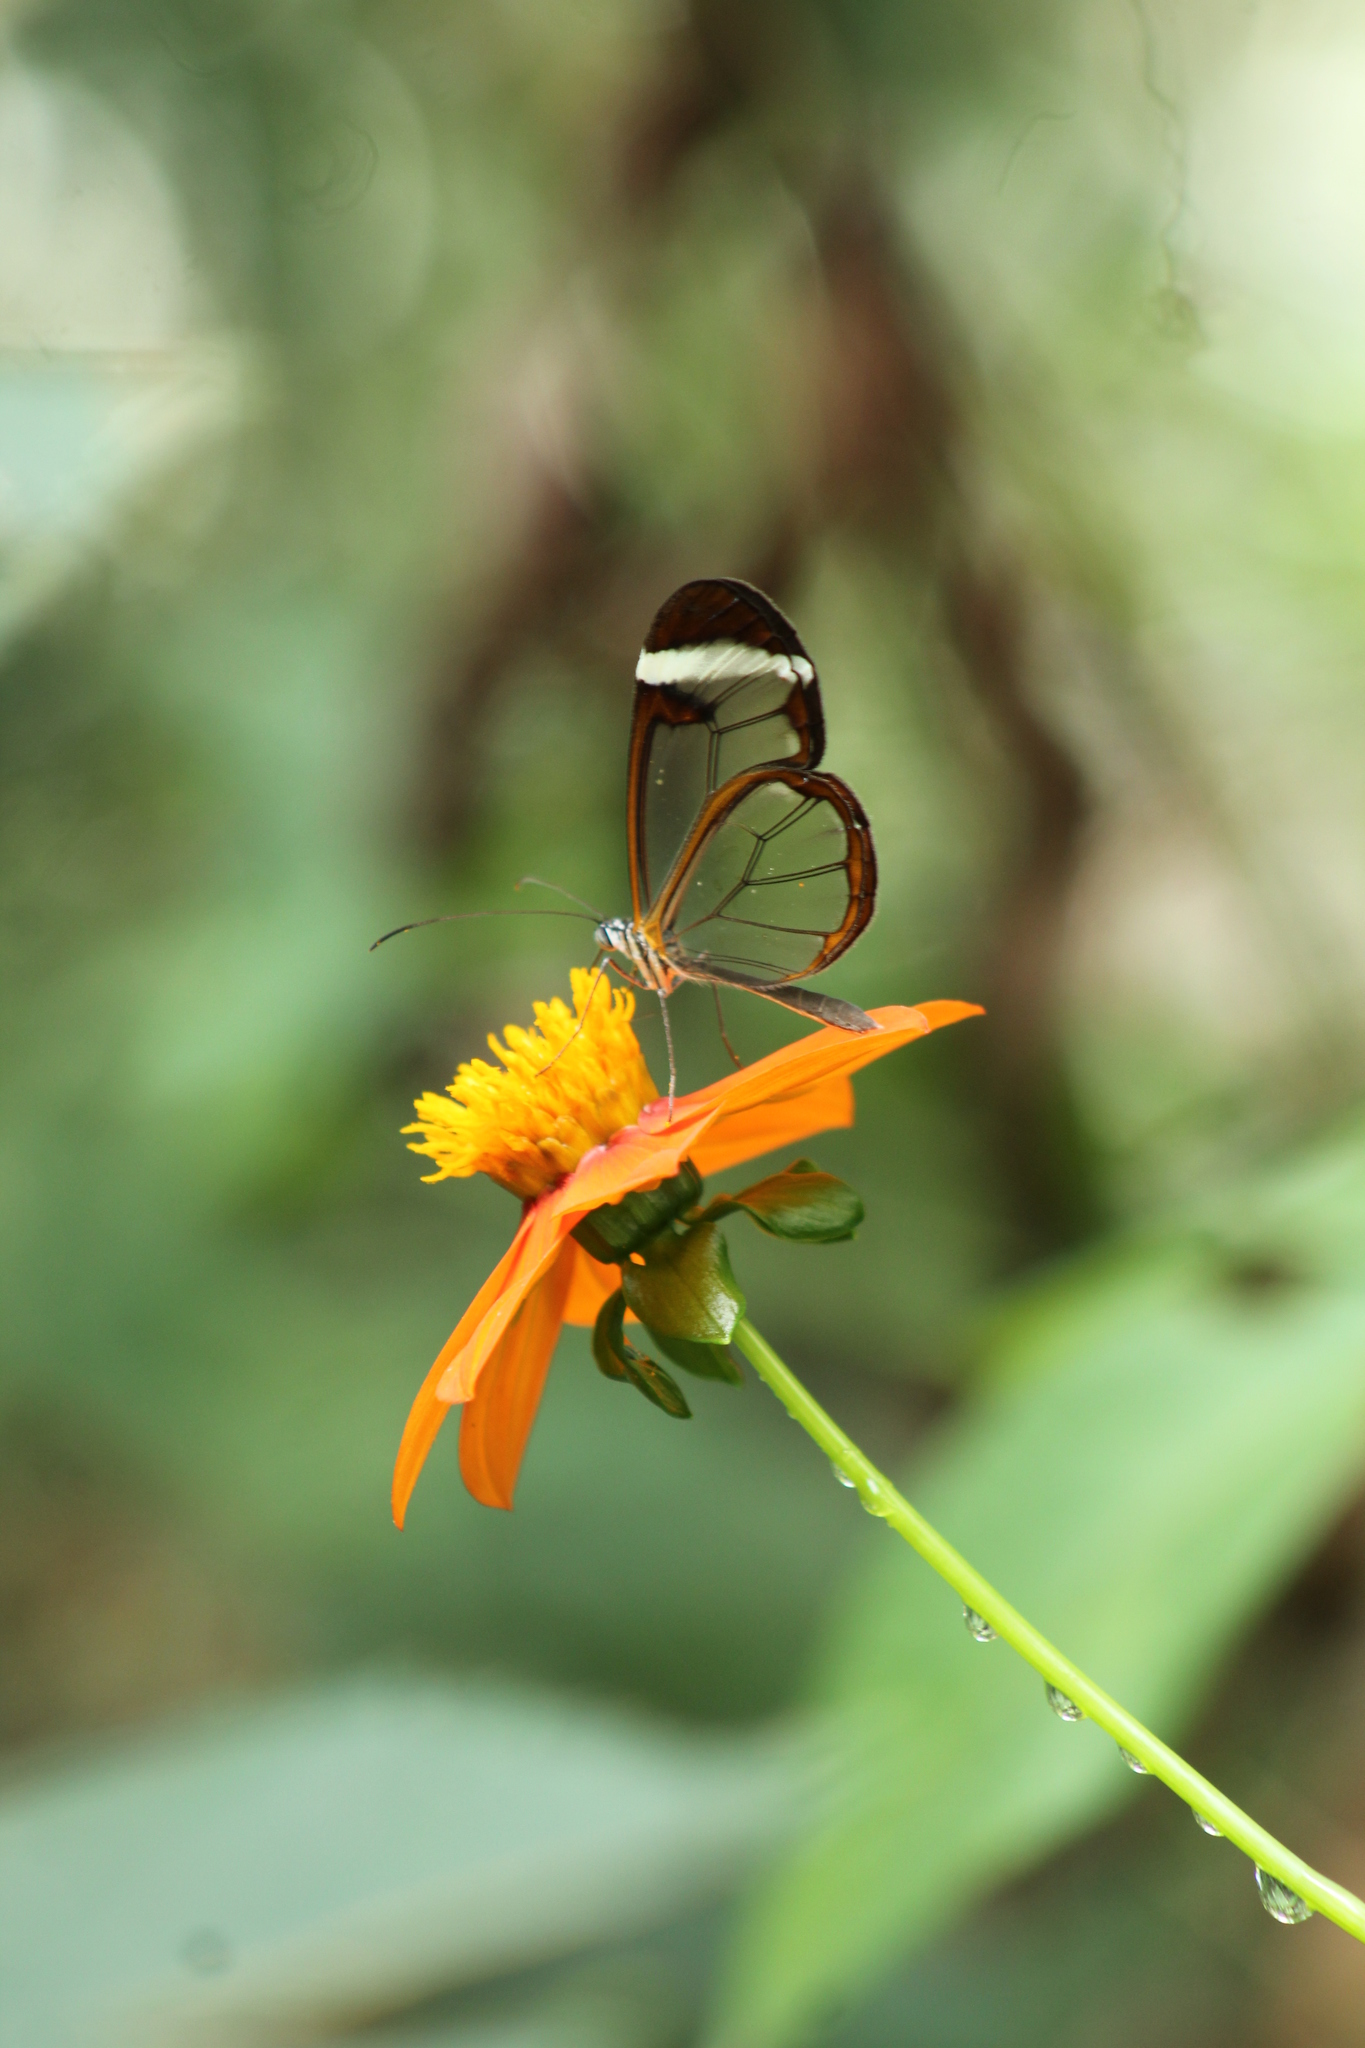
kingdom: Animalia
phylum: Arthropoda
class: Insecta
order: Lepidoptera
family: Nymphalidae
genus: Greta
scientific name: Greta morgane
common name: Thick-tipped greta
